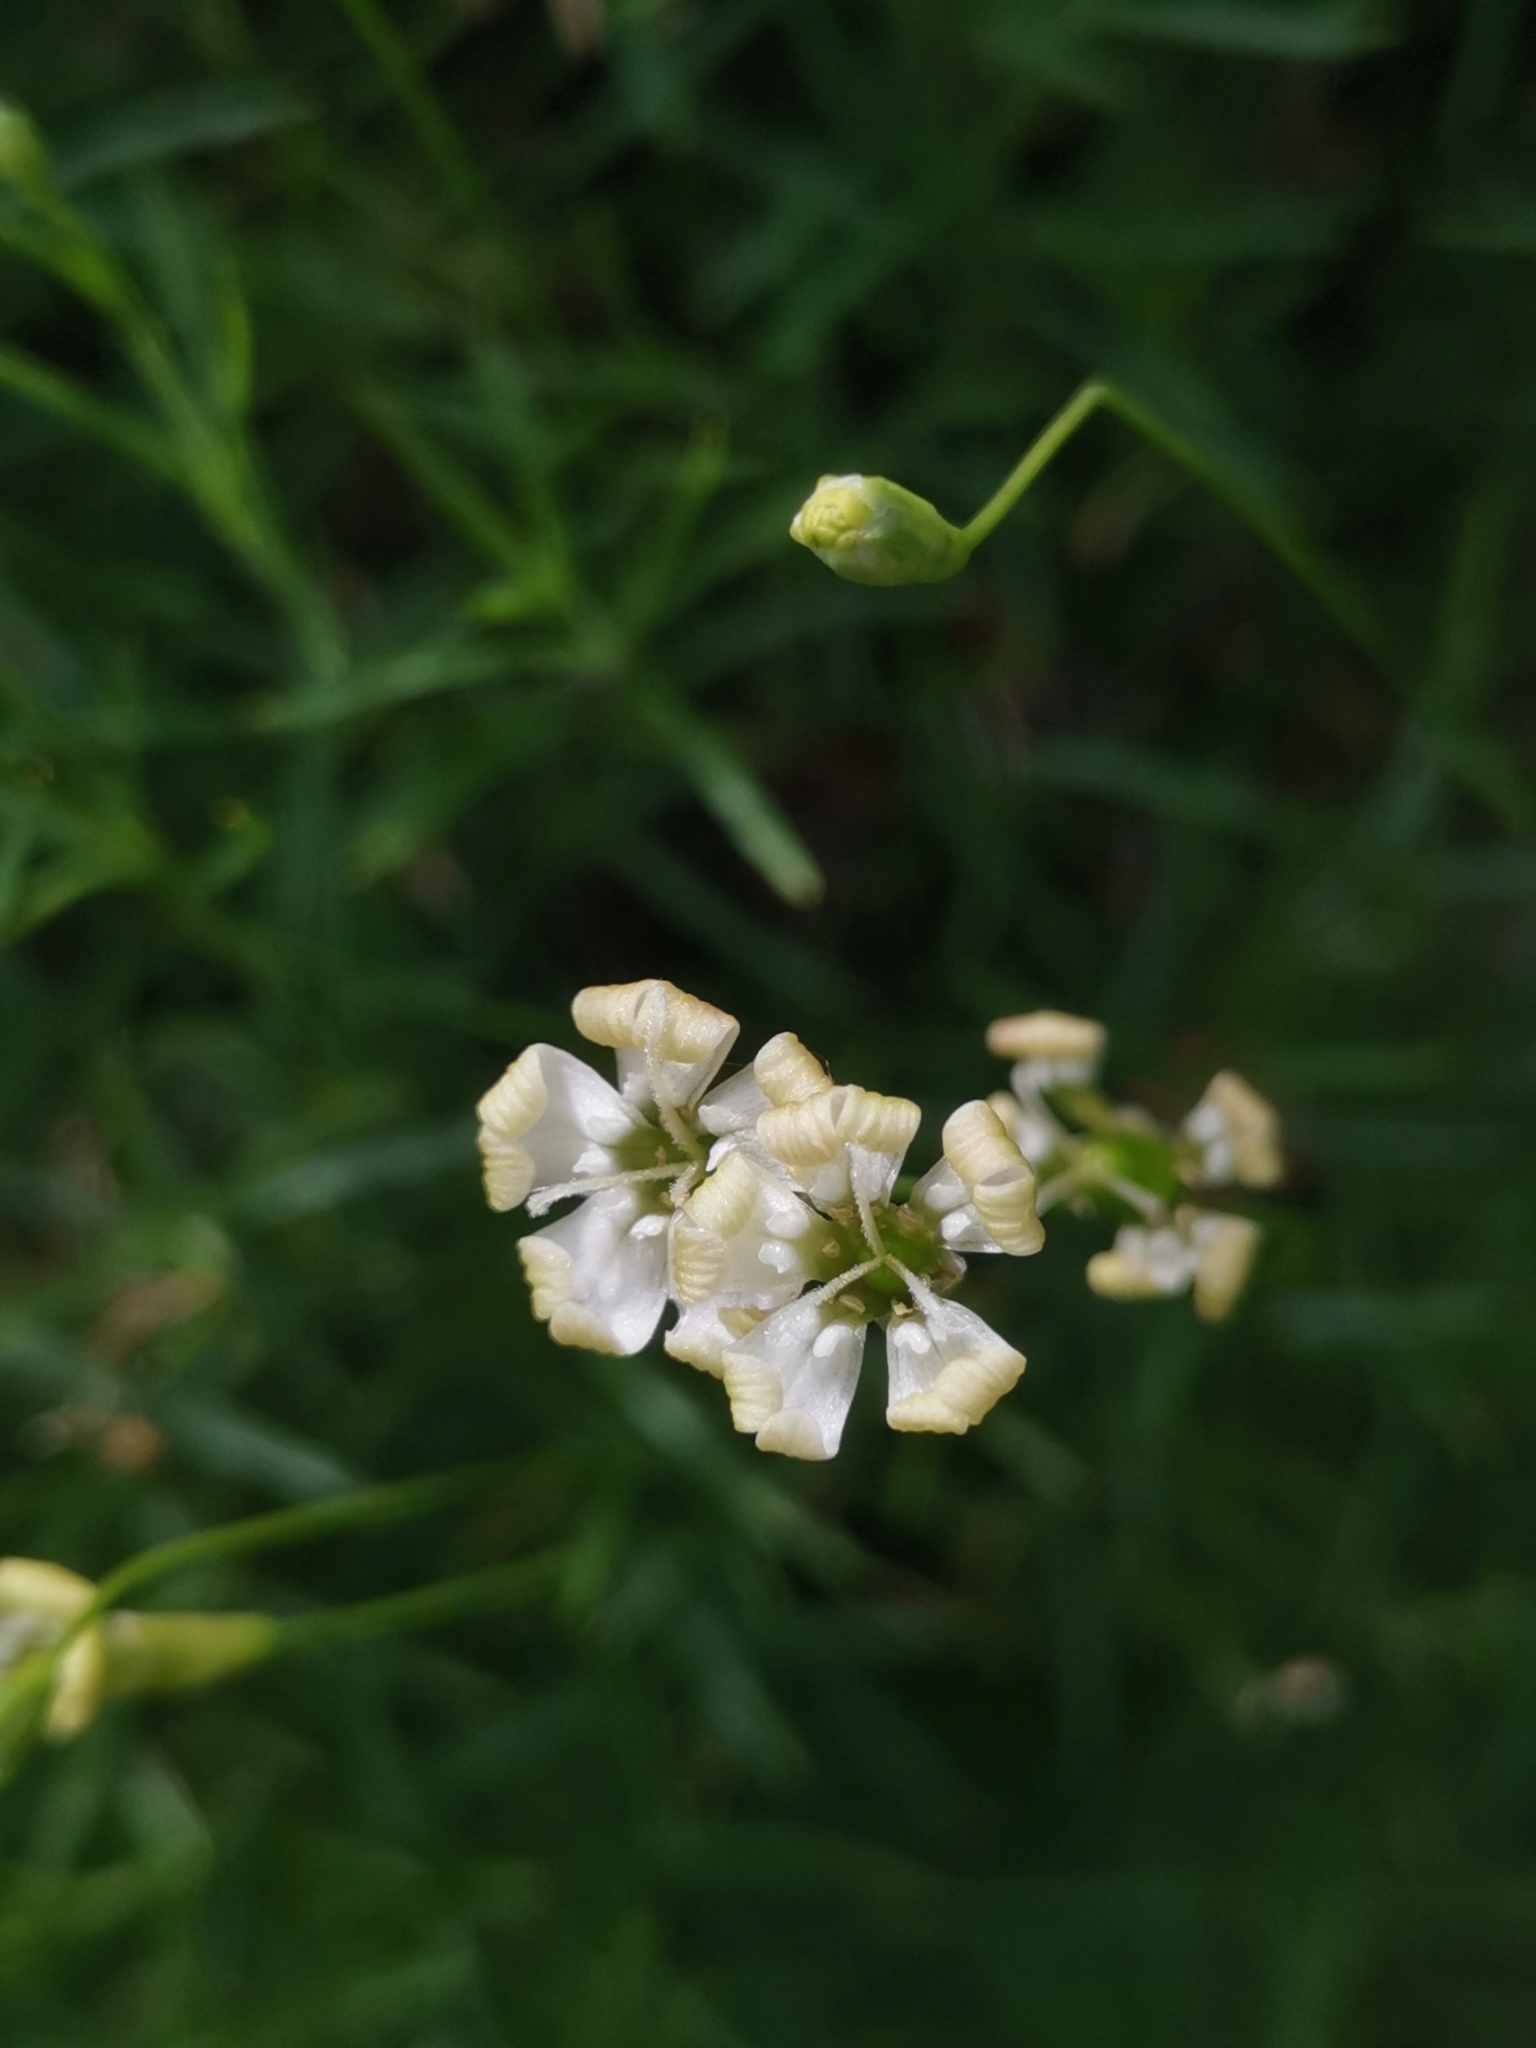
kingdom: Plantae
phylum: Tracheophyta
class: Magnoliopsida
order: Caryophyllales
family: Caryophyllaceae
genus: Silene
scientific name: Silene hayekiana
